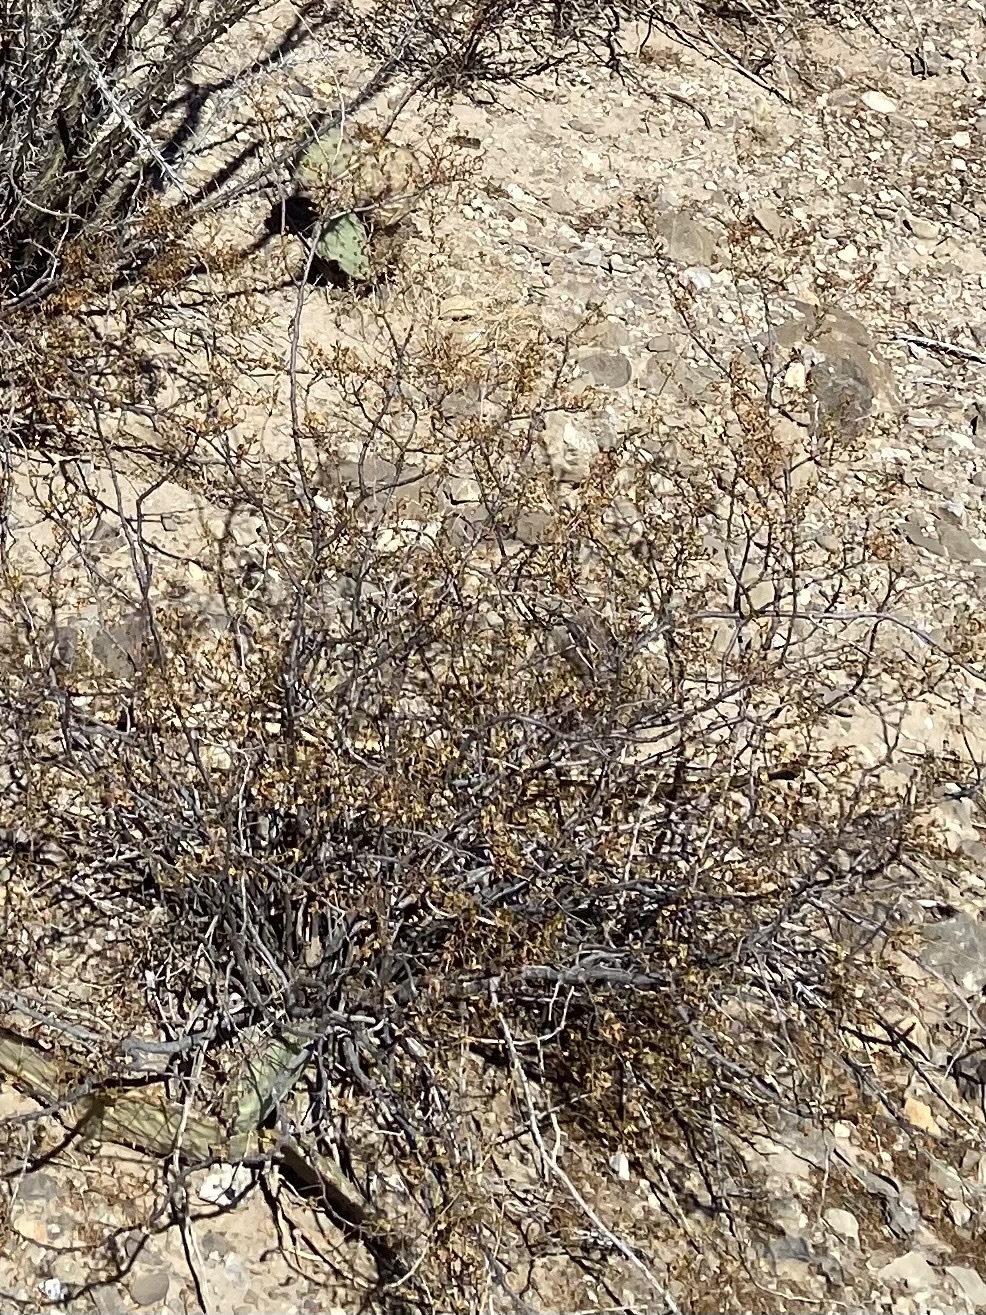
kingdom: Plantae
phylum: Tracheophyta
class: Magnoliopsida
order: Zygophyllales
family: Zygophyllaceae
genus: Larrea
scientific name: Larrea tridentata
